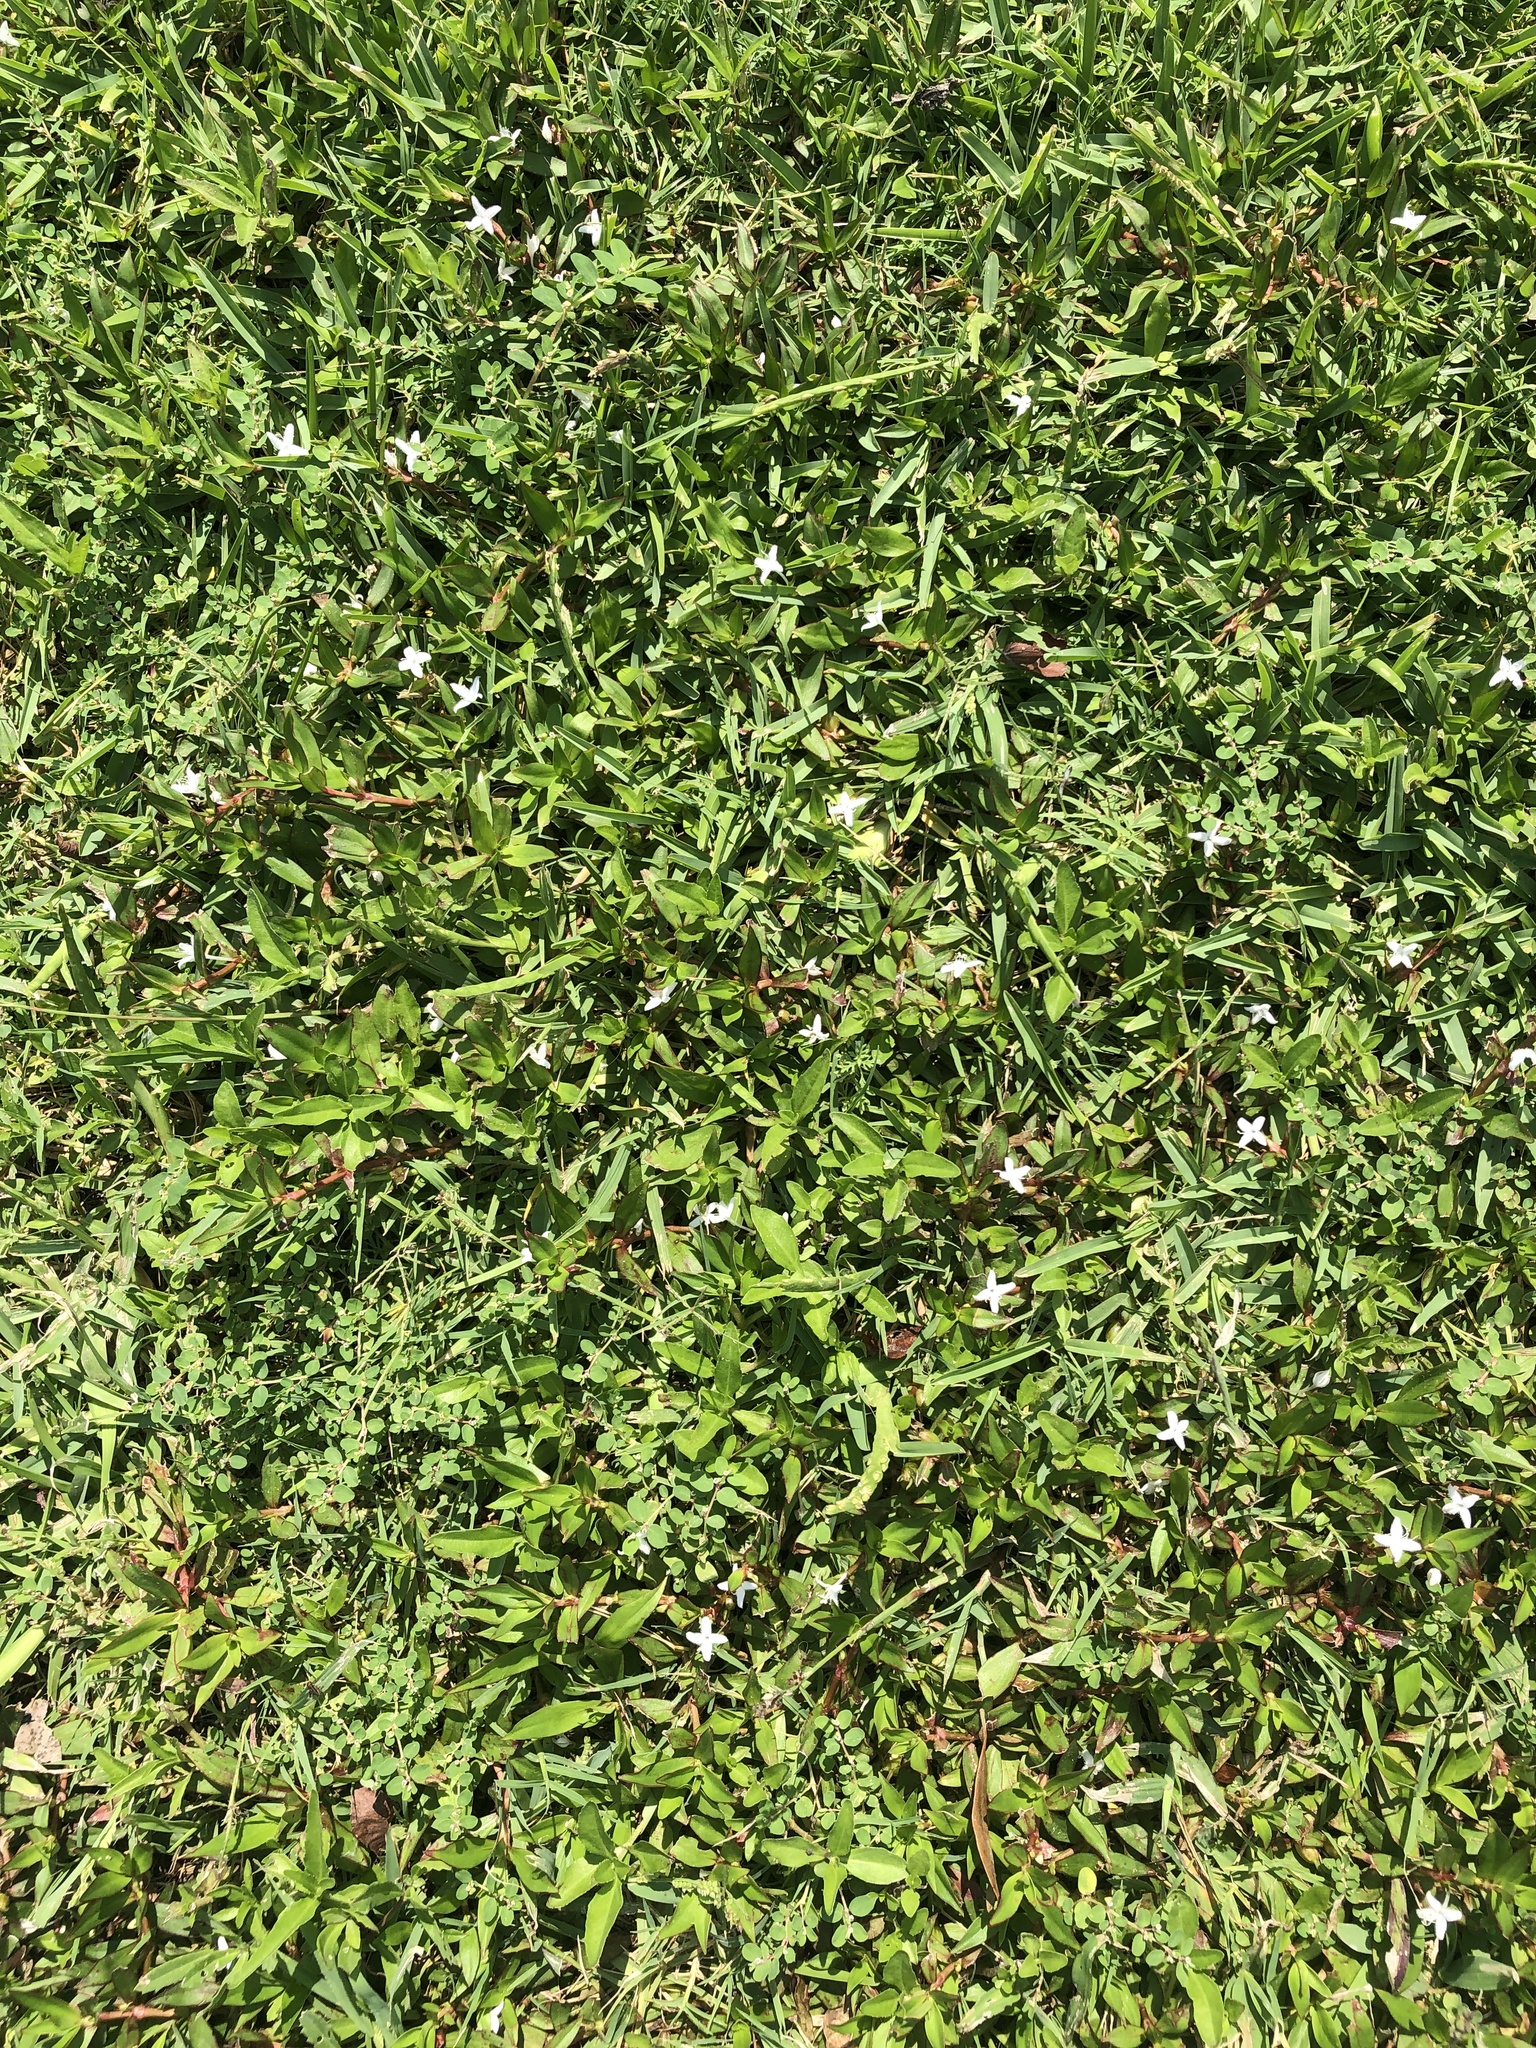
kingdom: Plantae
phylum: Tracheophyta
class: Magnoliopsida
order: Gentianales
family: Rubiaceae
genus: Diodia
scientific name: Diodia virginiana
